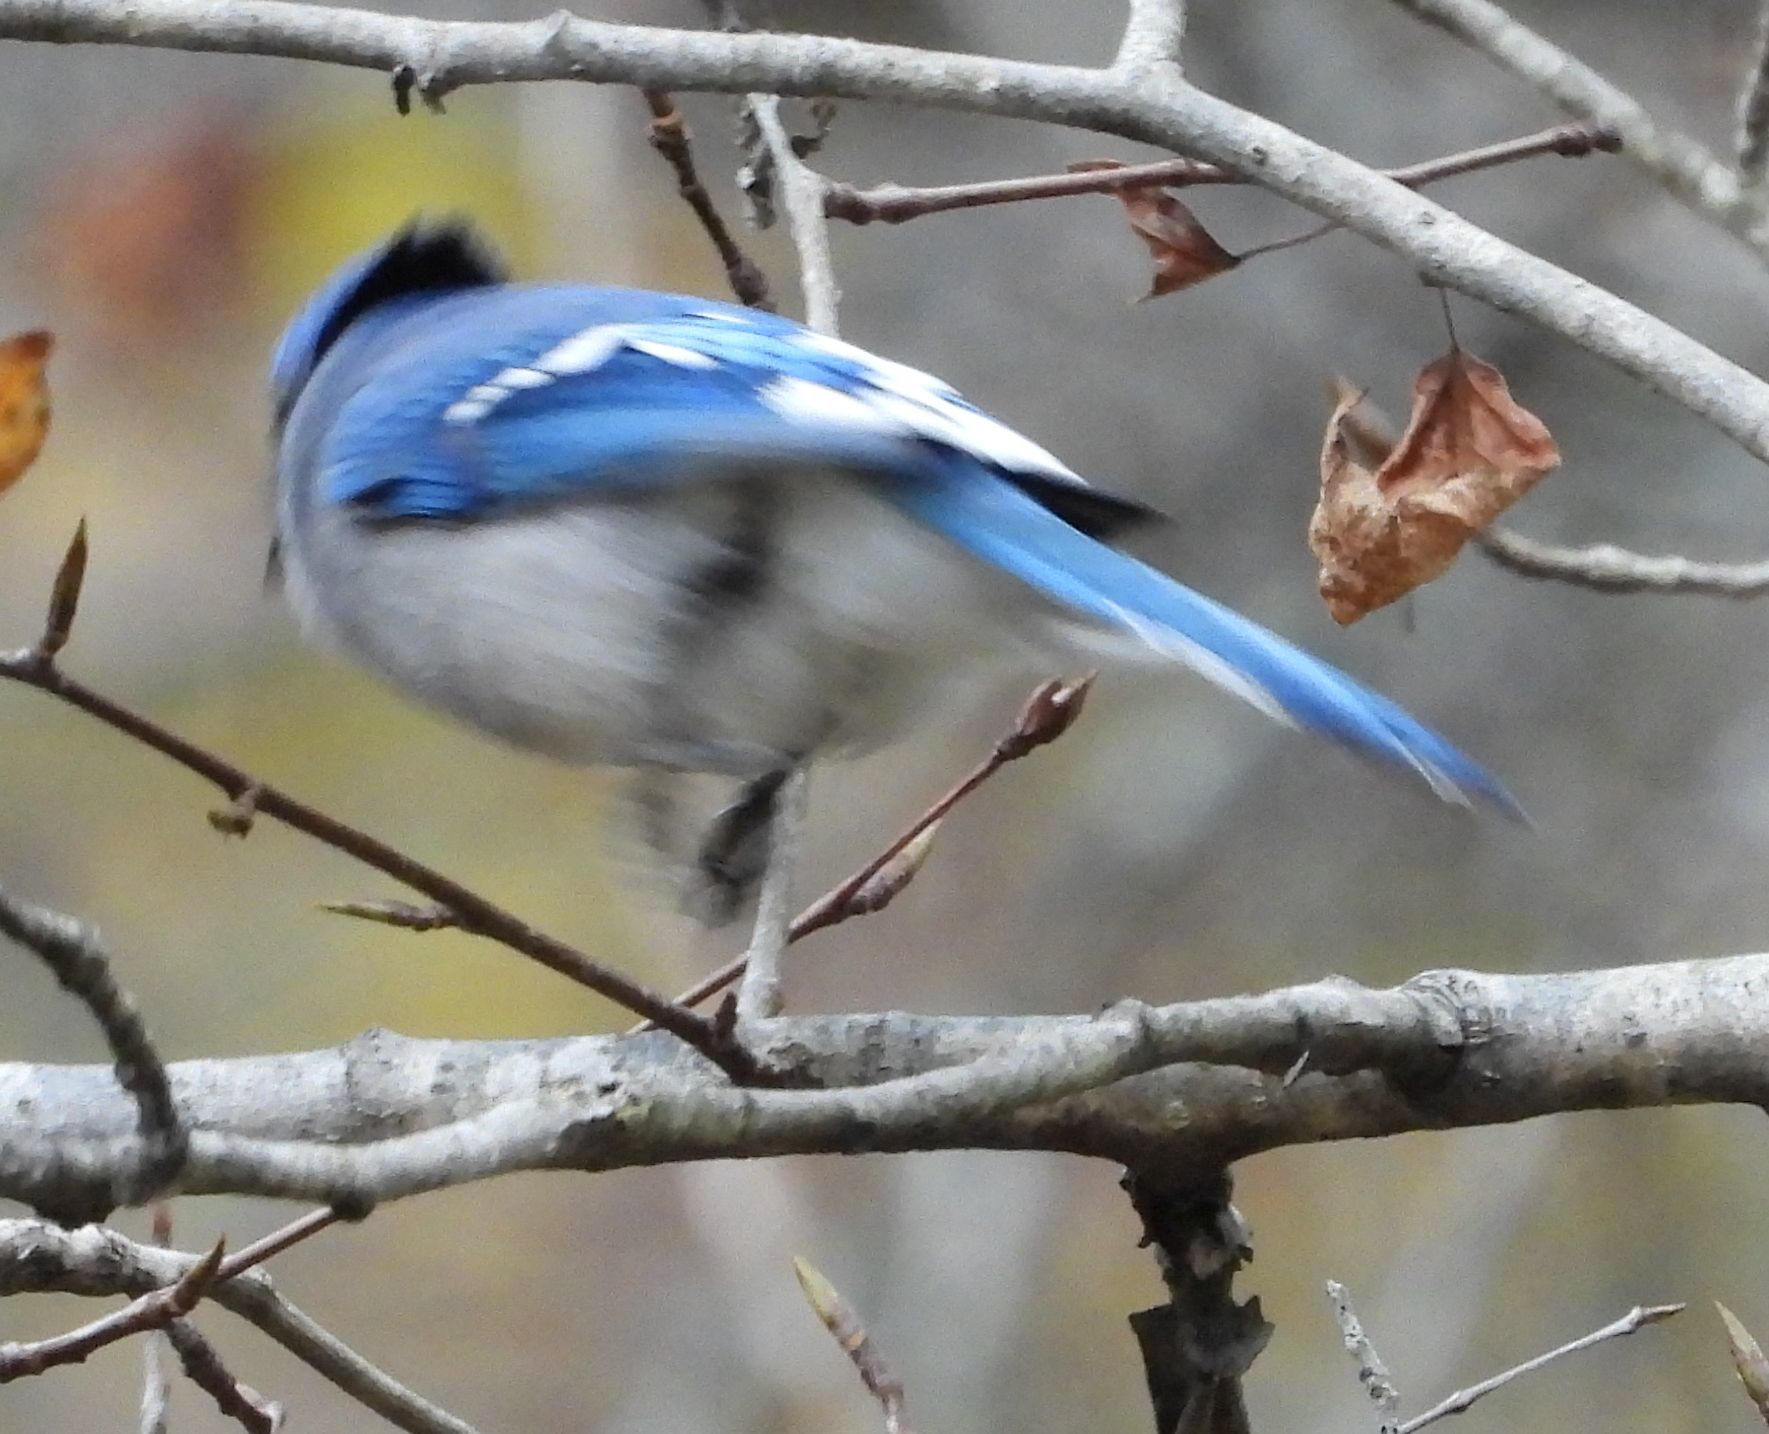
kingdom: Animalia
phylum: Chordata
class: Aves
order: Passeriformes
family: Corvidae
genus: Cyanocitta
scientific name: Cyanocitta cristata
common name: Blue jay
